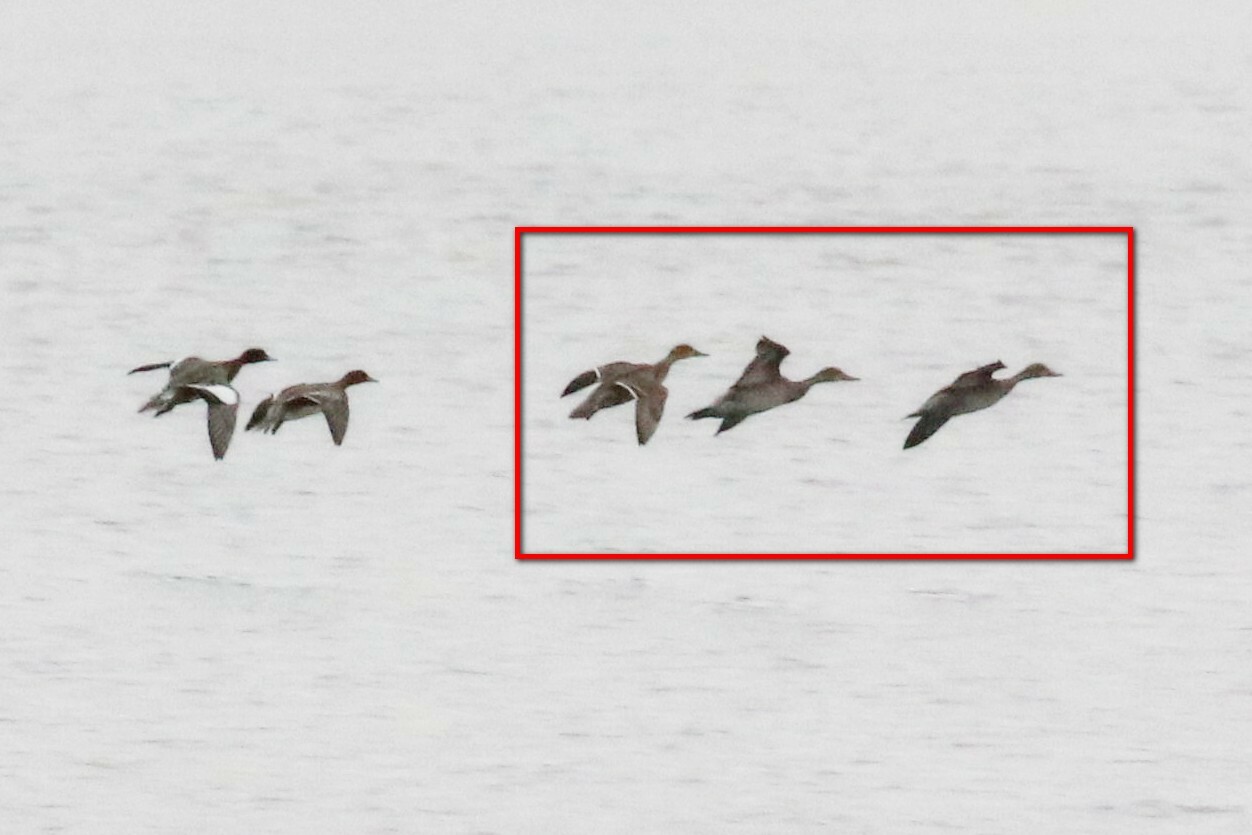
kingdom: Animalia
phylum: Chordata
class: Aves
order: Anseriformes
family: Anatidae
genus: Anas
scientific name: Anas acuta
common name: Northern pintail
